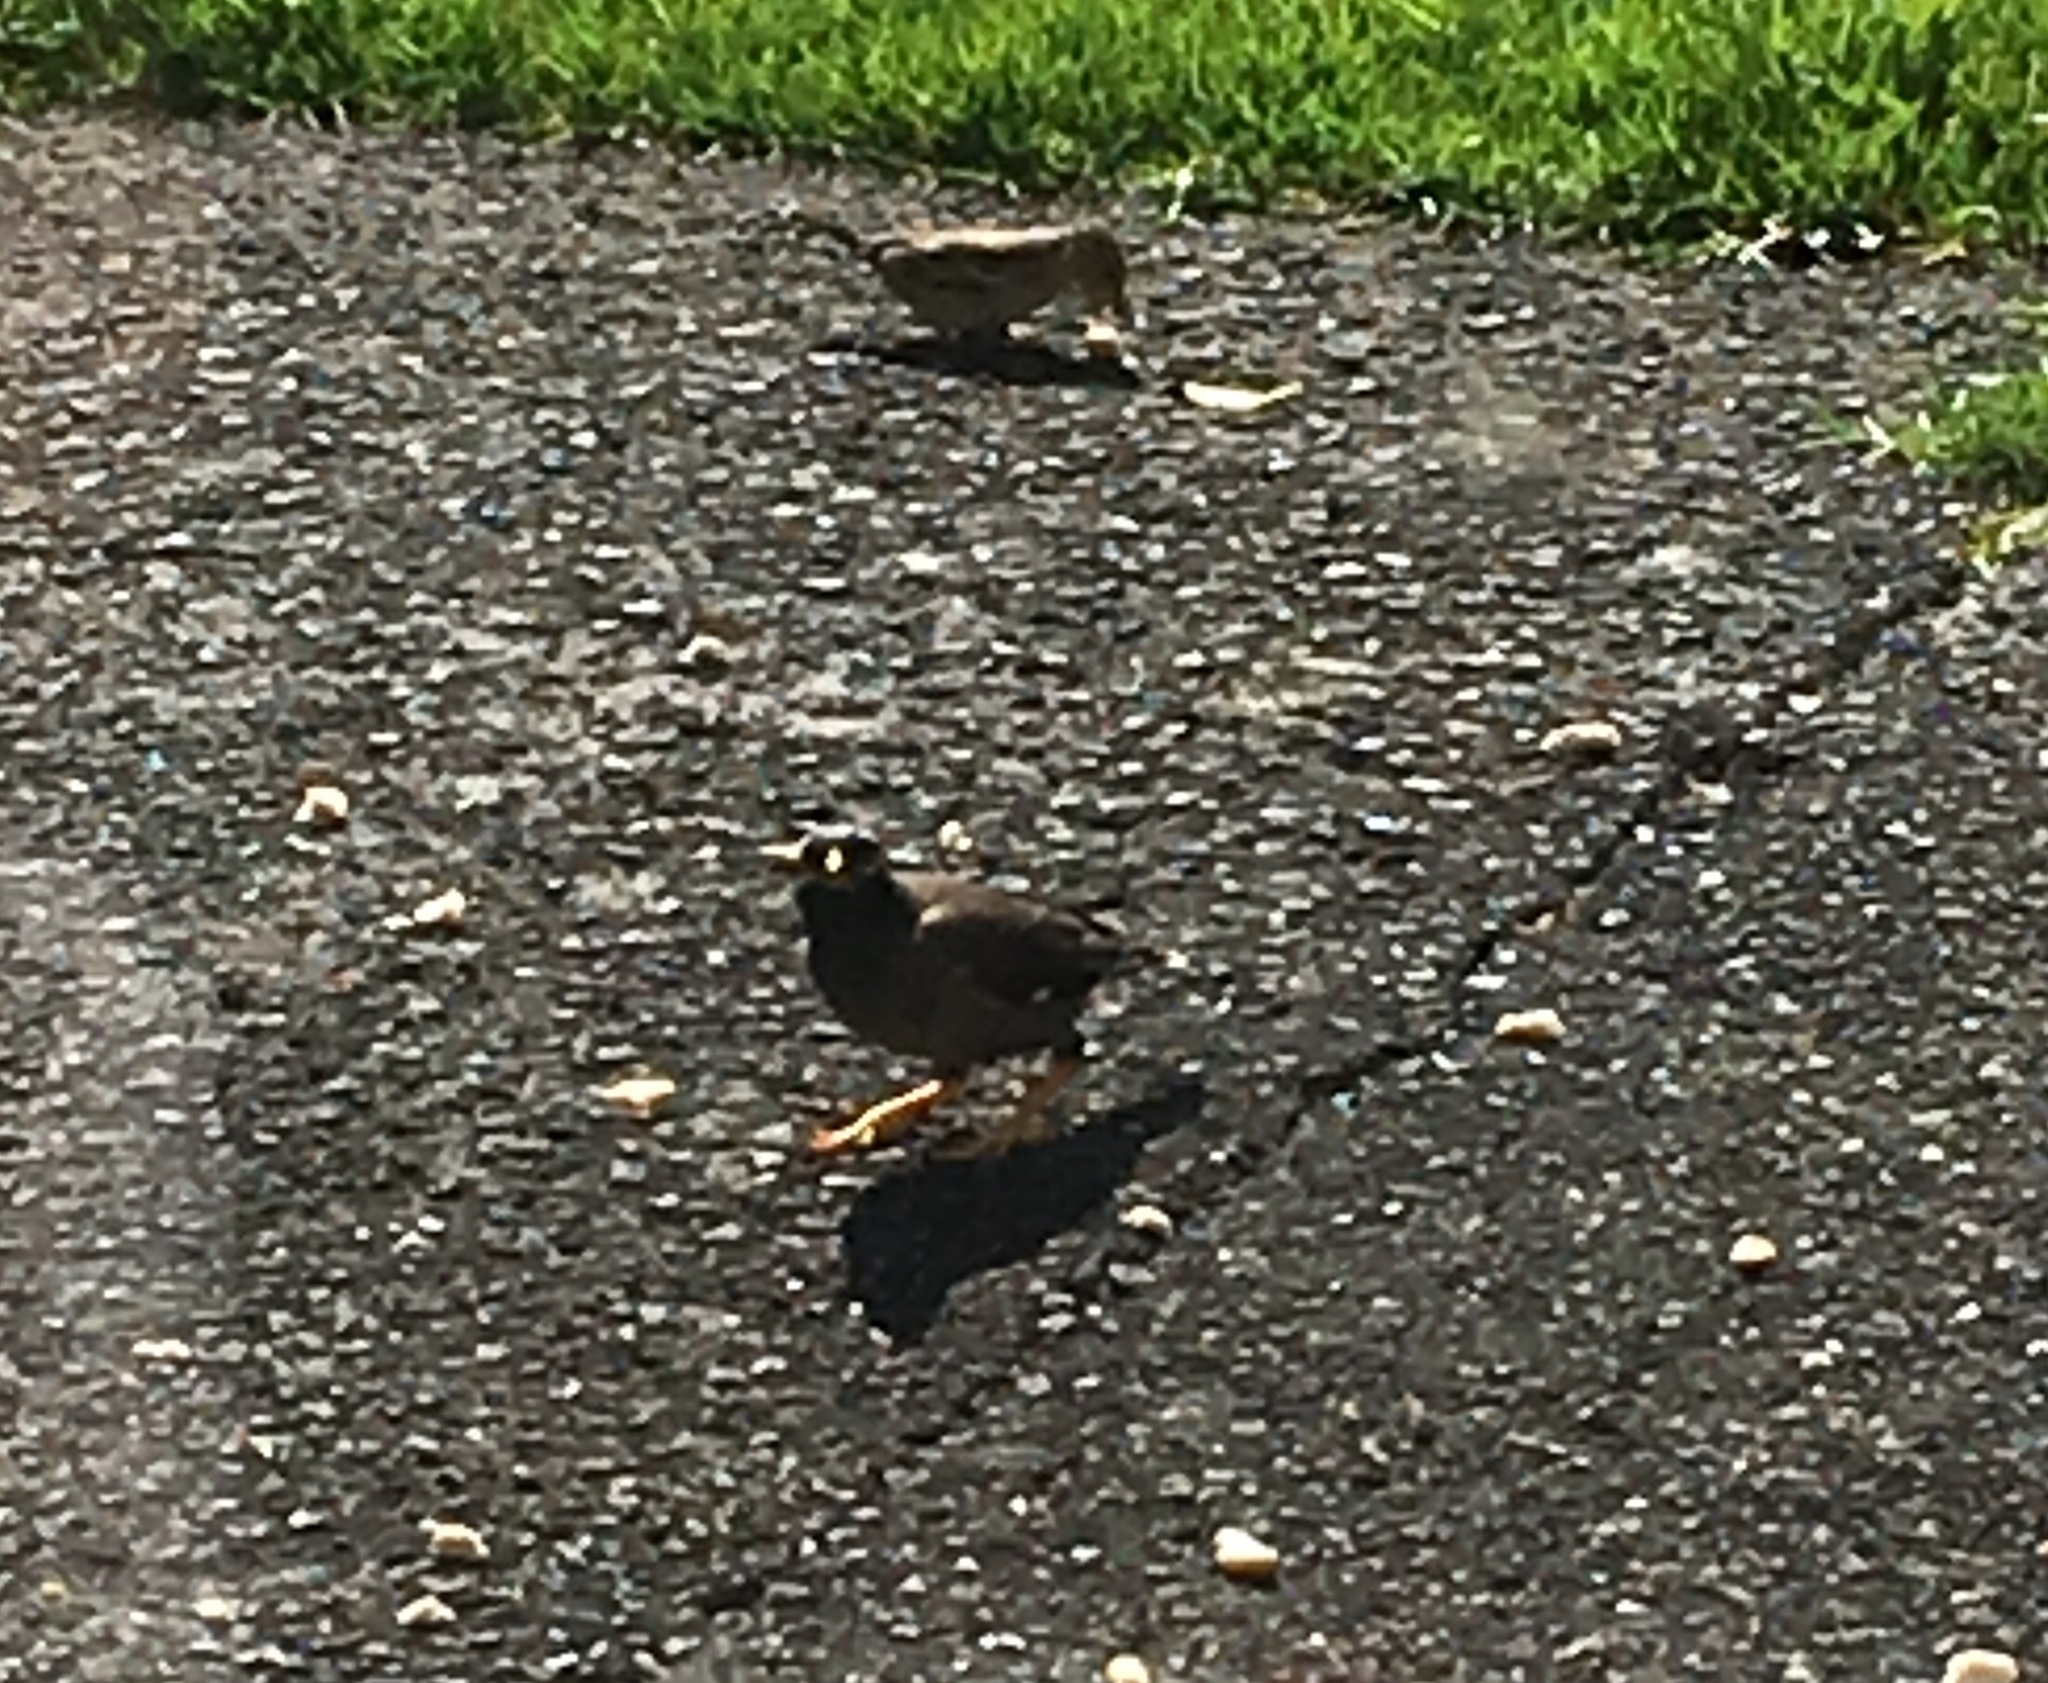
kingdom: Animalia
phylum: Chordata
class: Aves
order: Passeriformes
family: Sturnidae
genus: Acridotheres
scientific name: Acridotheres tristis
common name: Common myna
